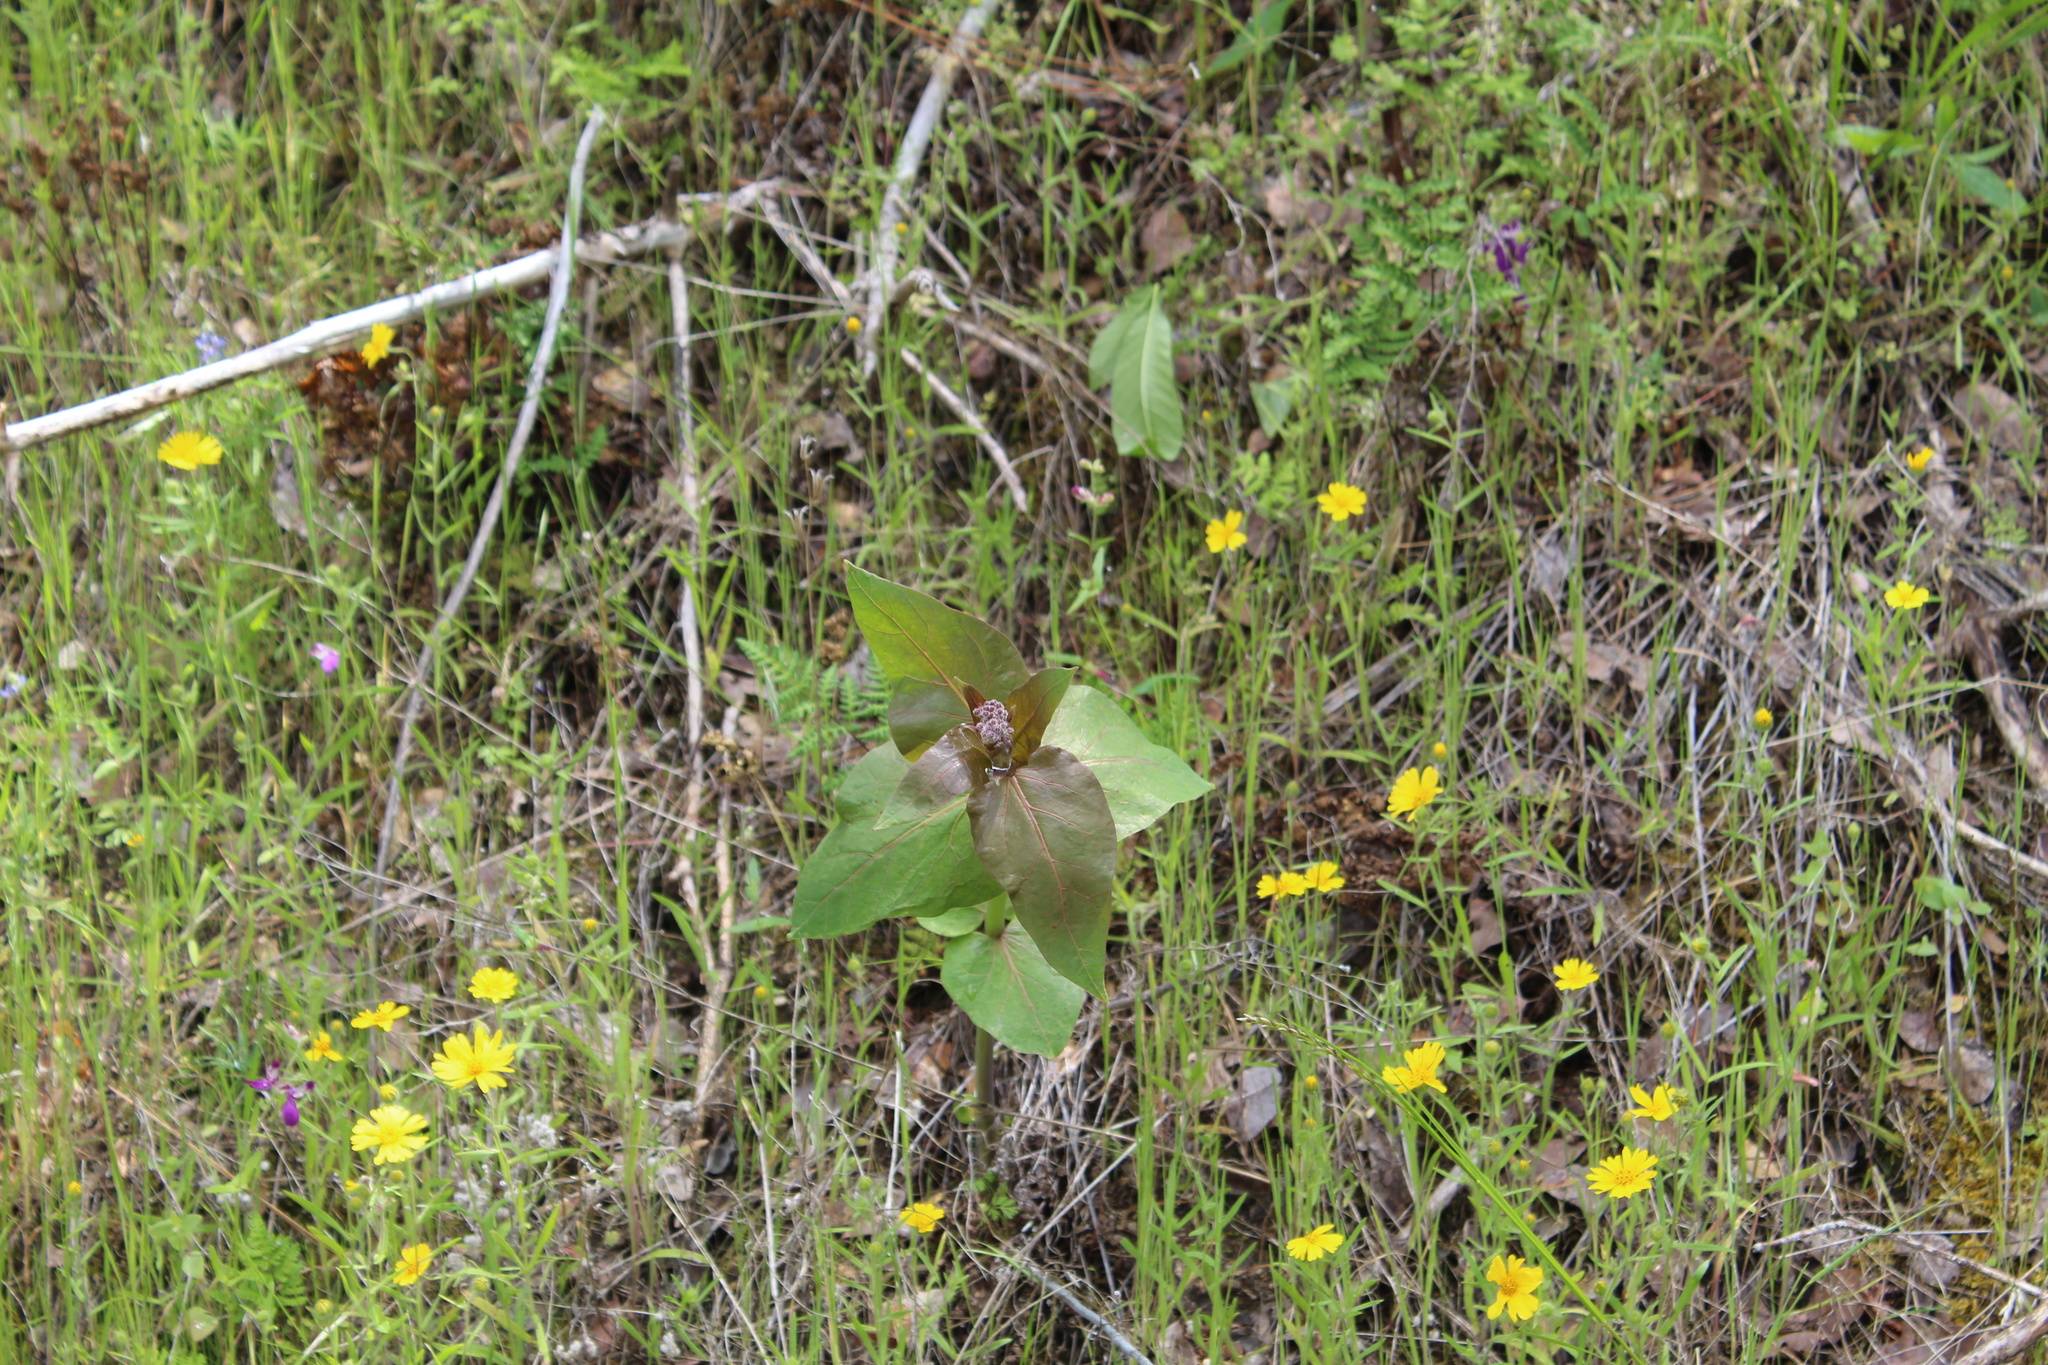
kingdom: Plantae
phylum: Tracheophyta
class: Magnoliopsida
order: Gentianales
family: Apocynaceae
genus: Asclepias
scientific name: Asclepias cordifolia
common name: Purple milkweed
